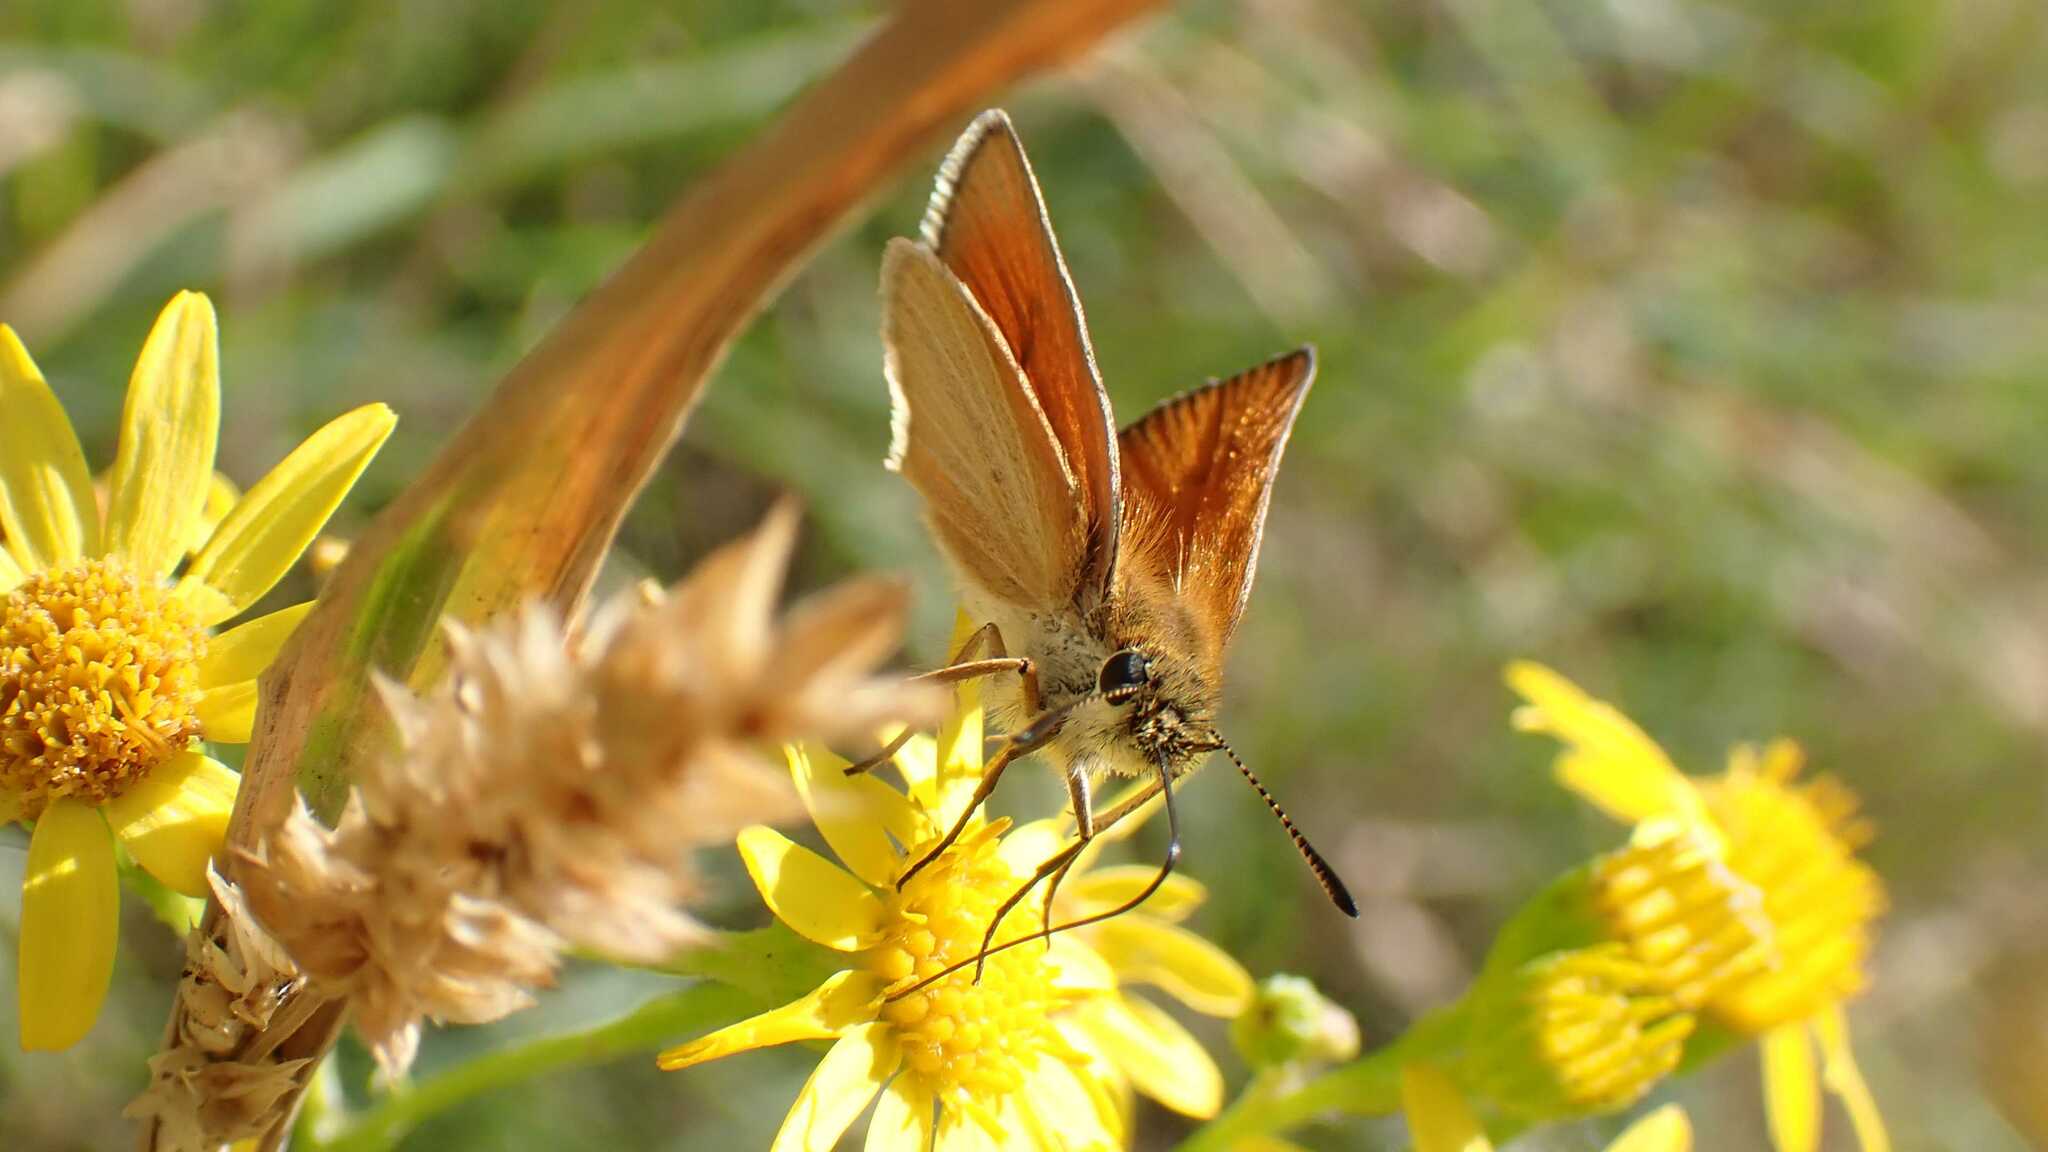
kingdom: Animalia
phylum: Arthropoda
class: Insecta
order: Lepidoptera
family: Hesperiidae
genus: Thymelicus
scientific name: Thymelicus lineola
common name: Essex skipper
